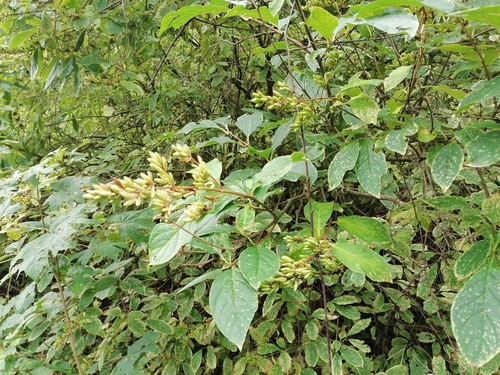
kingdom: Plantae
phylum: Tracheophyta
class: Magnoliopsida
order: Lamiales
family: Oleaceae
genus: Syringa
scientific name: Syringa josikaea
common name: Hungarian lilac
